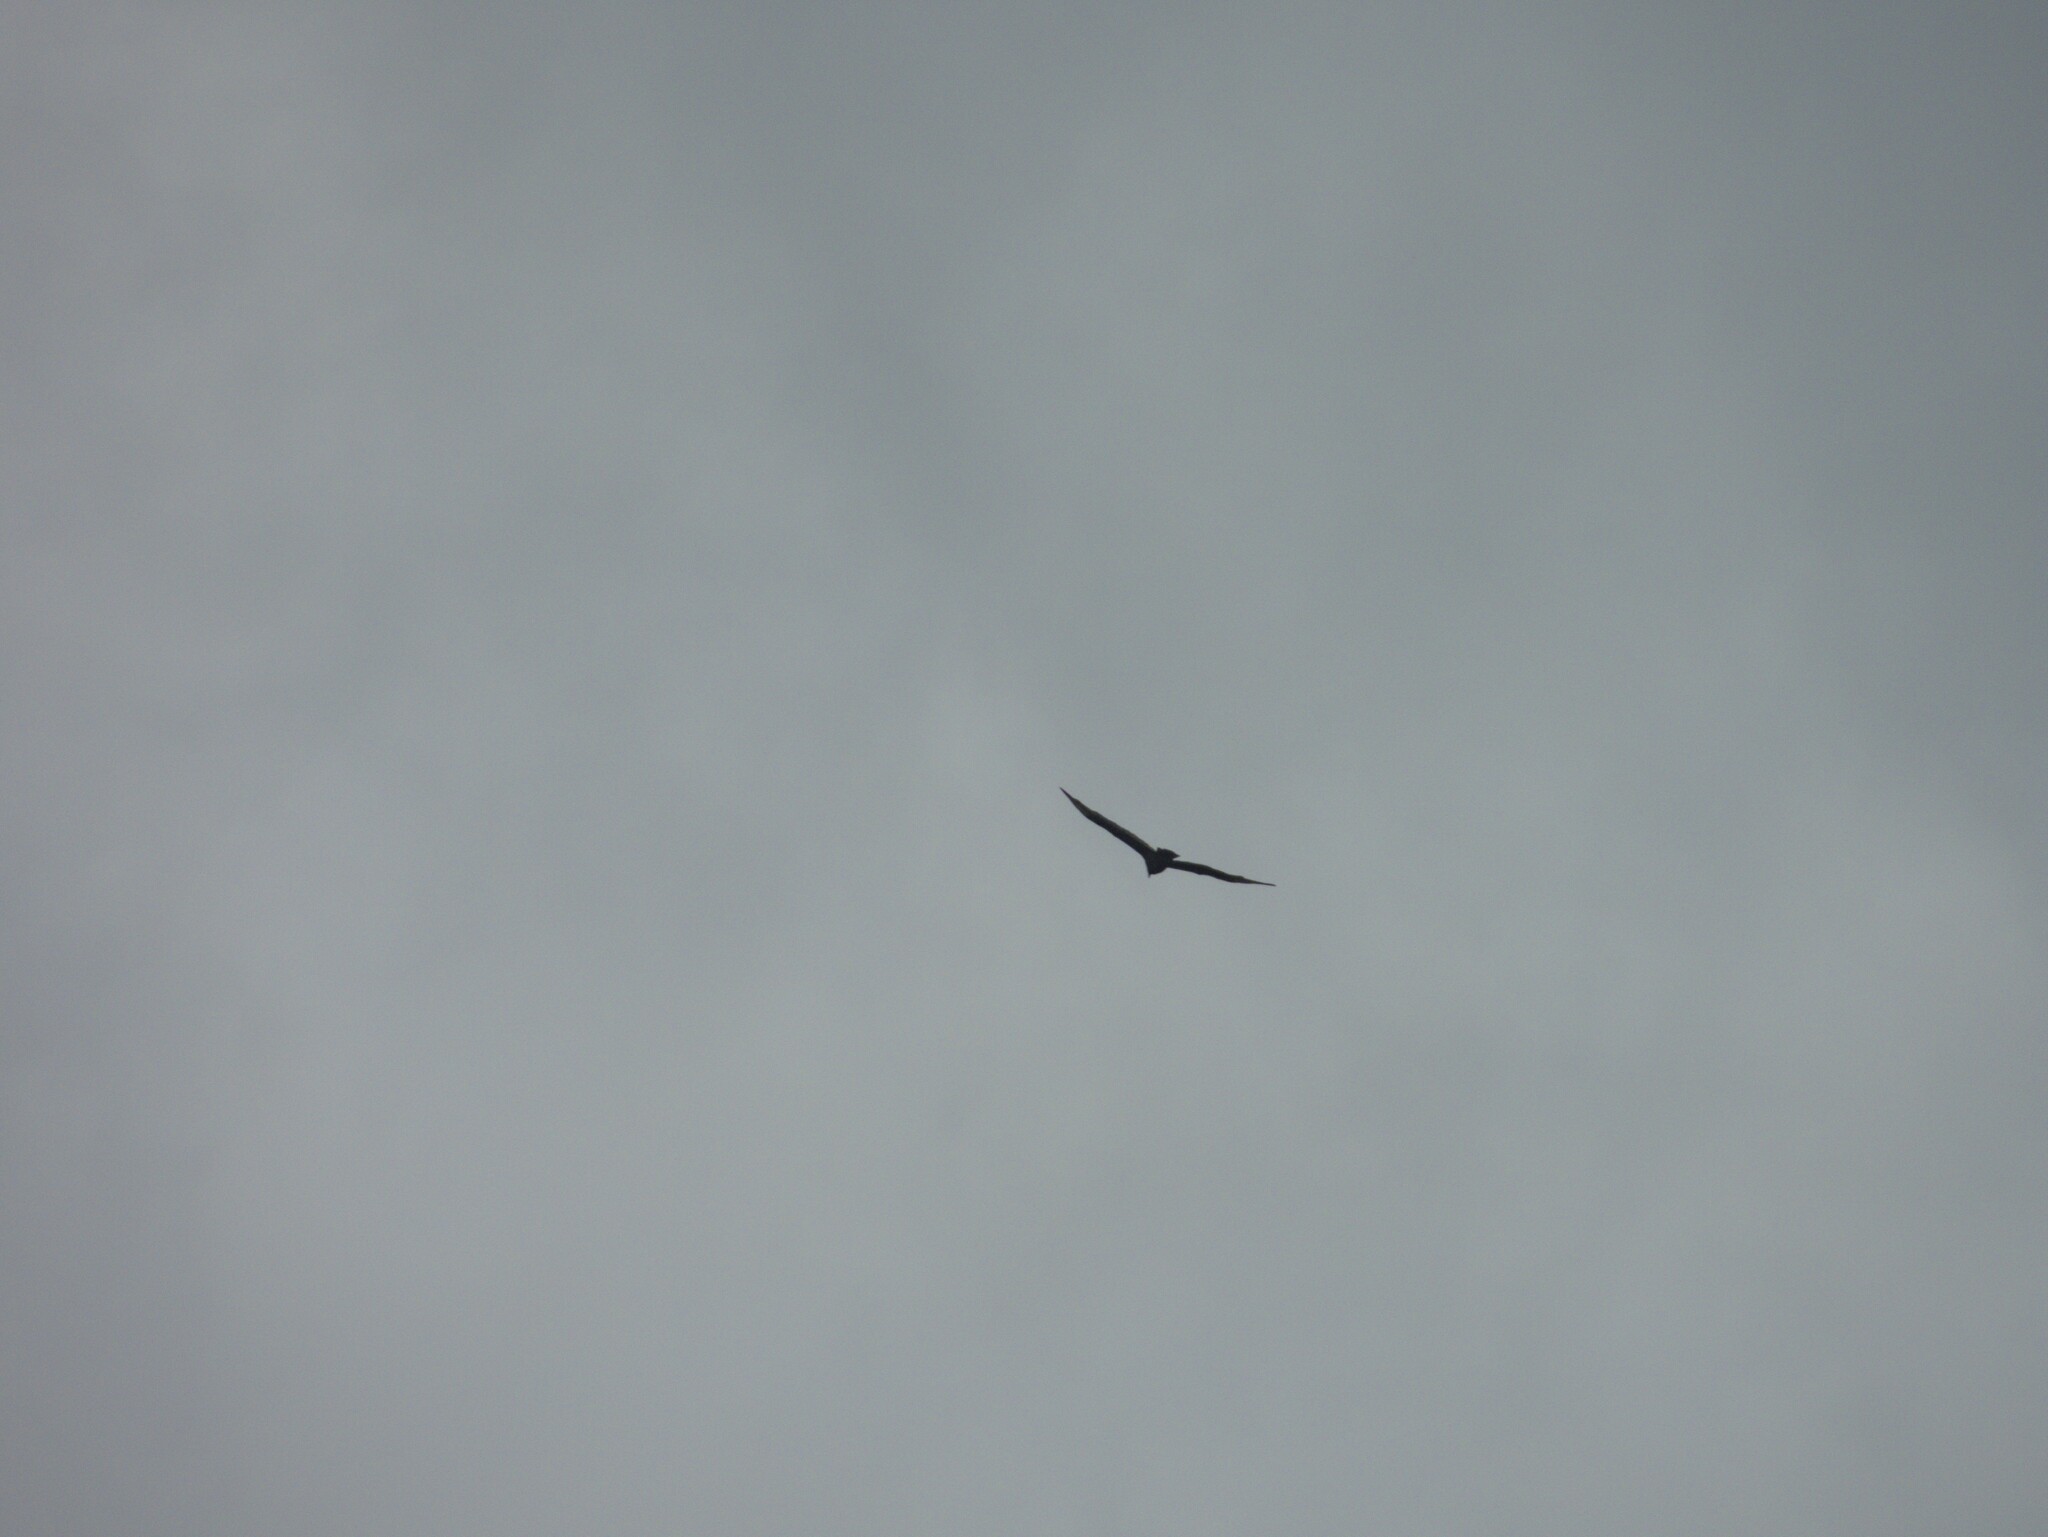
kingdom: Animalia
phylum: Chordata
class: Aves
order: Accipitriformes
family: Cathartidae
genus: Cathartes
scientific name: Cathartes aura
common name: Turkey vulture
